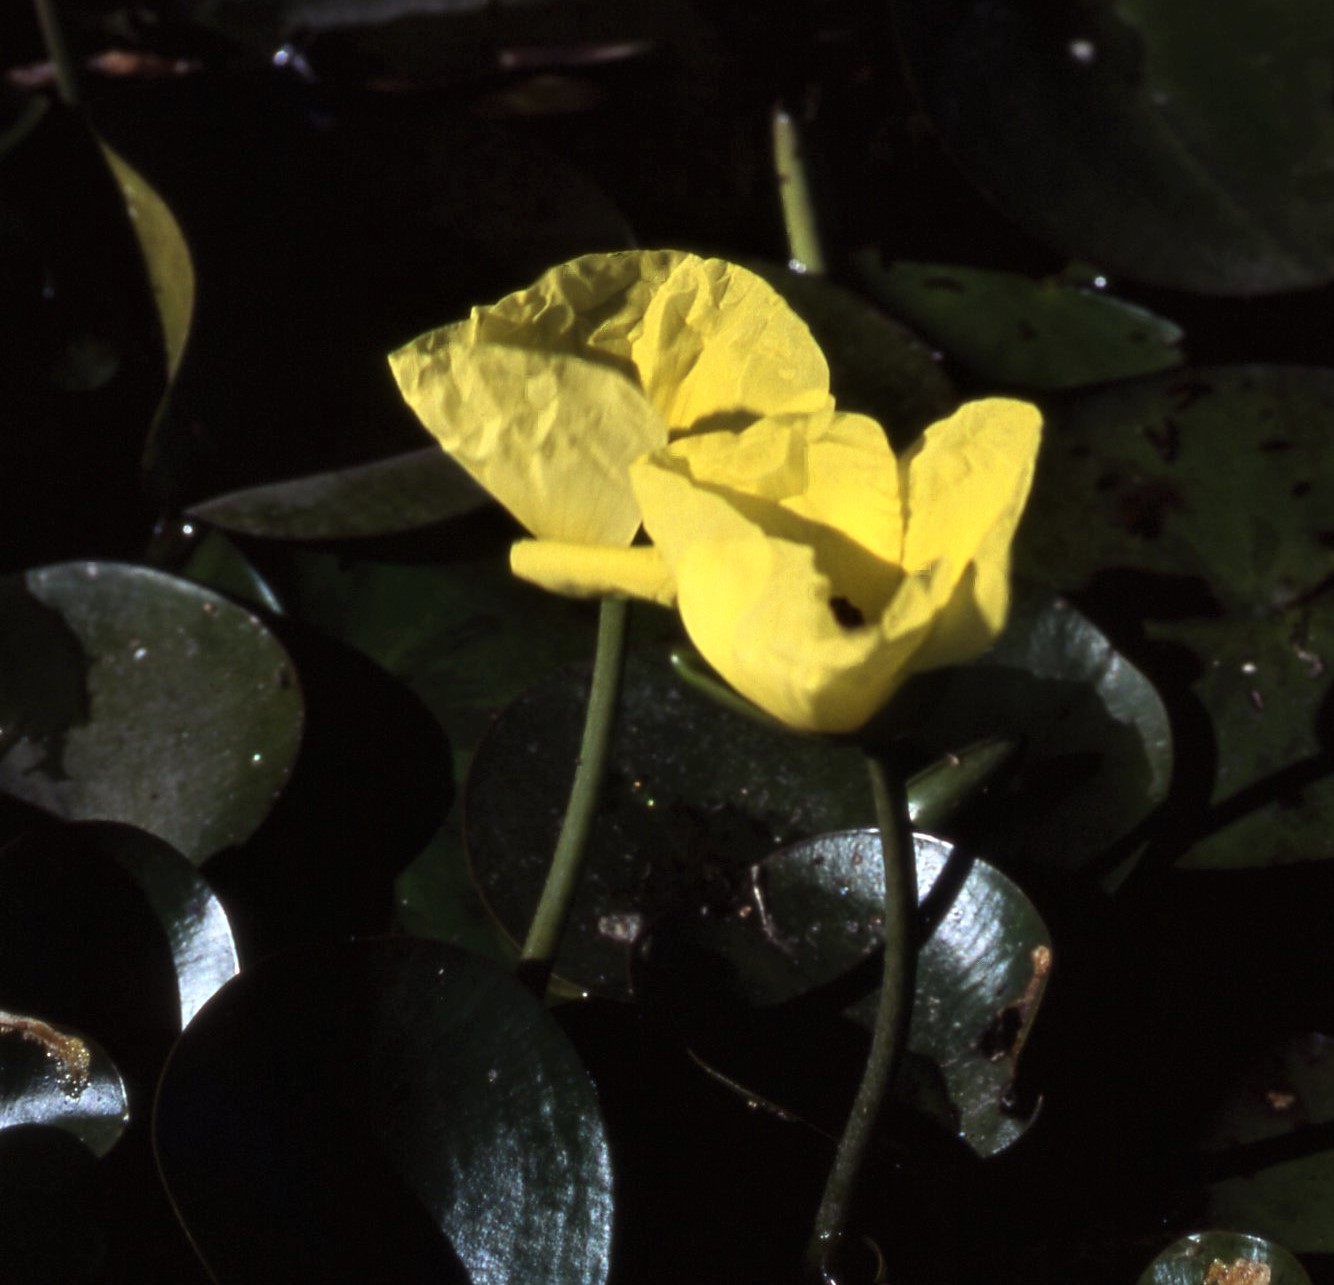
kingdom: Plantae
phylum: Tracheophyta
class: Liliopsida
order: Alismatales
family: Alismataceae
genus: Hydrocleys
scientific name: Hydrocleys nymphoides
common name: Water-poppy
